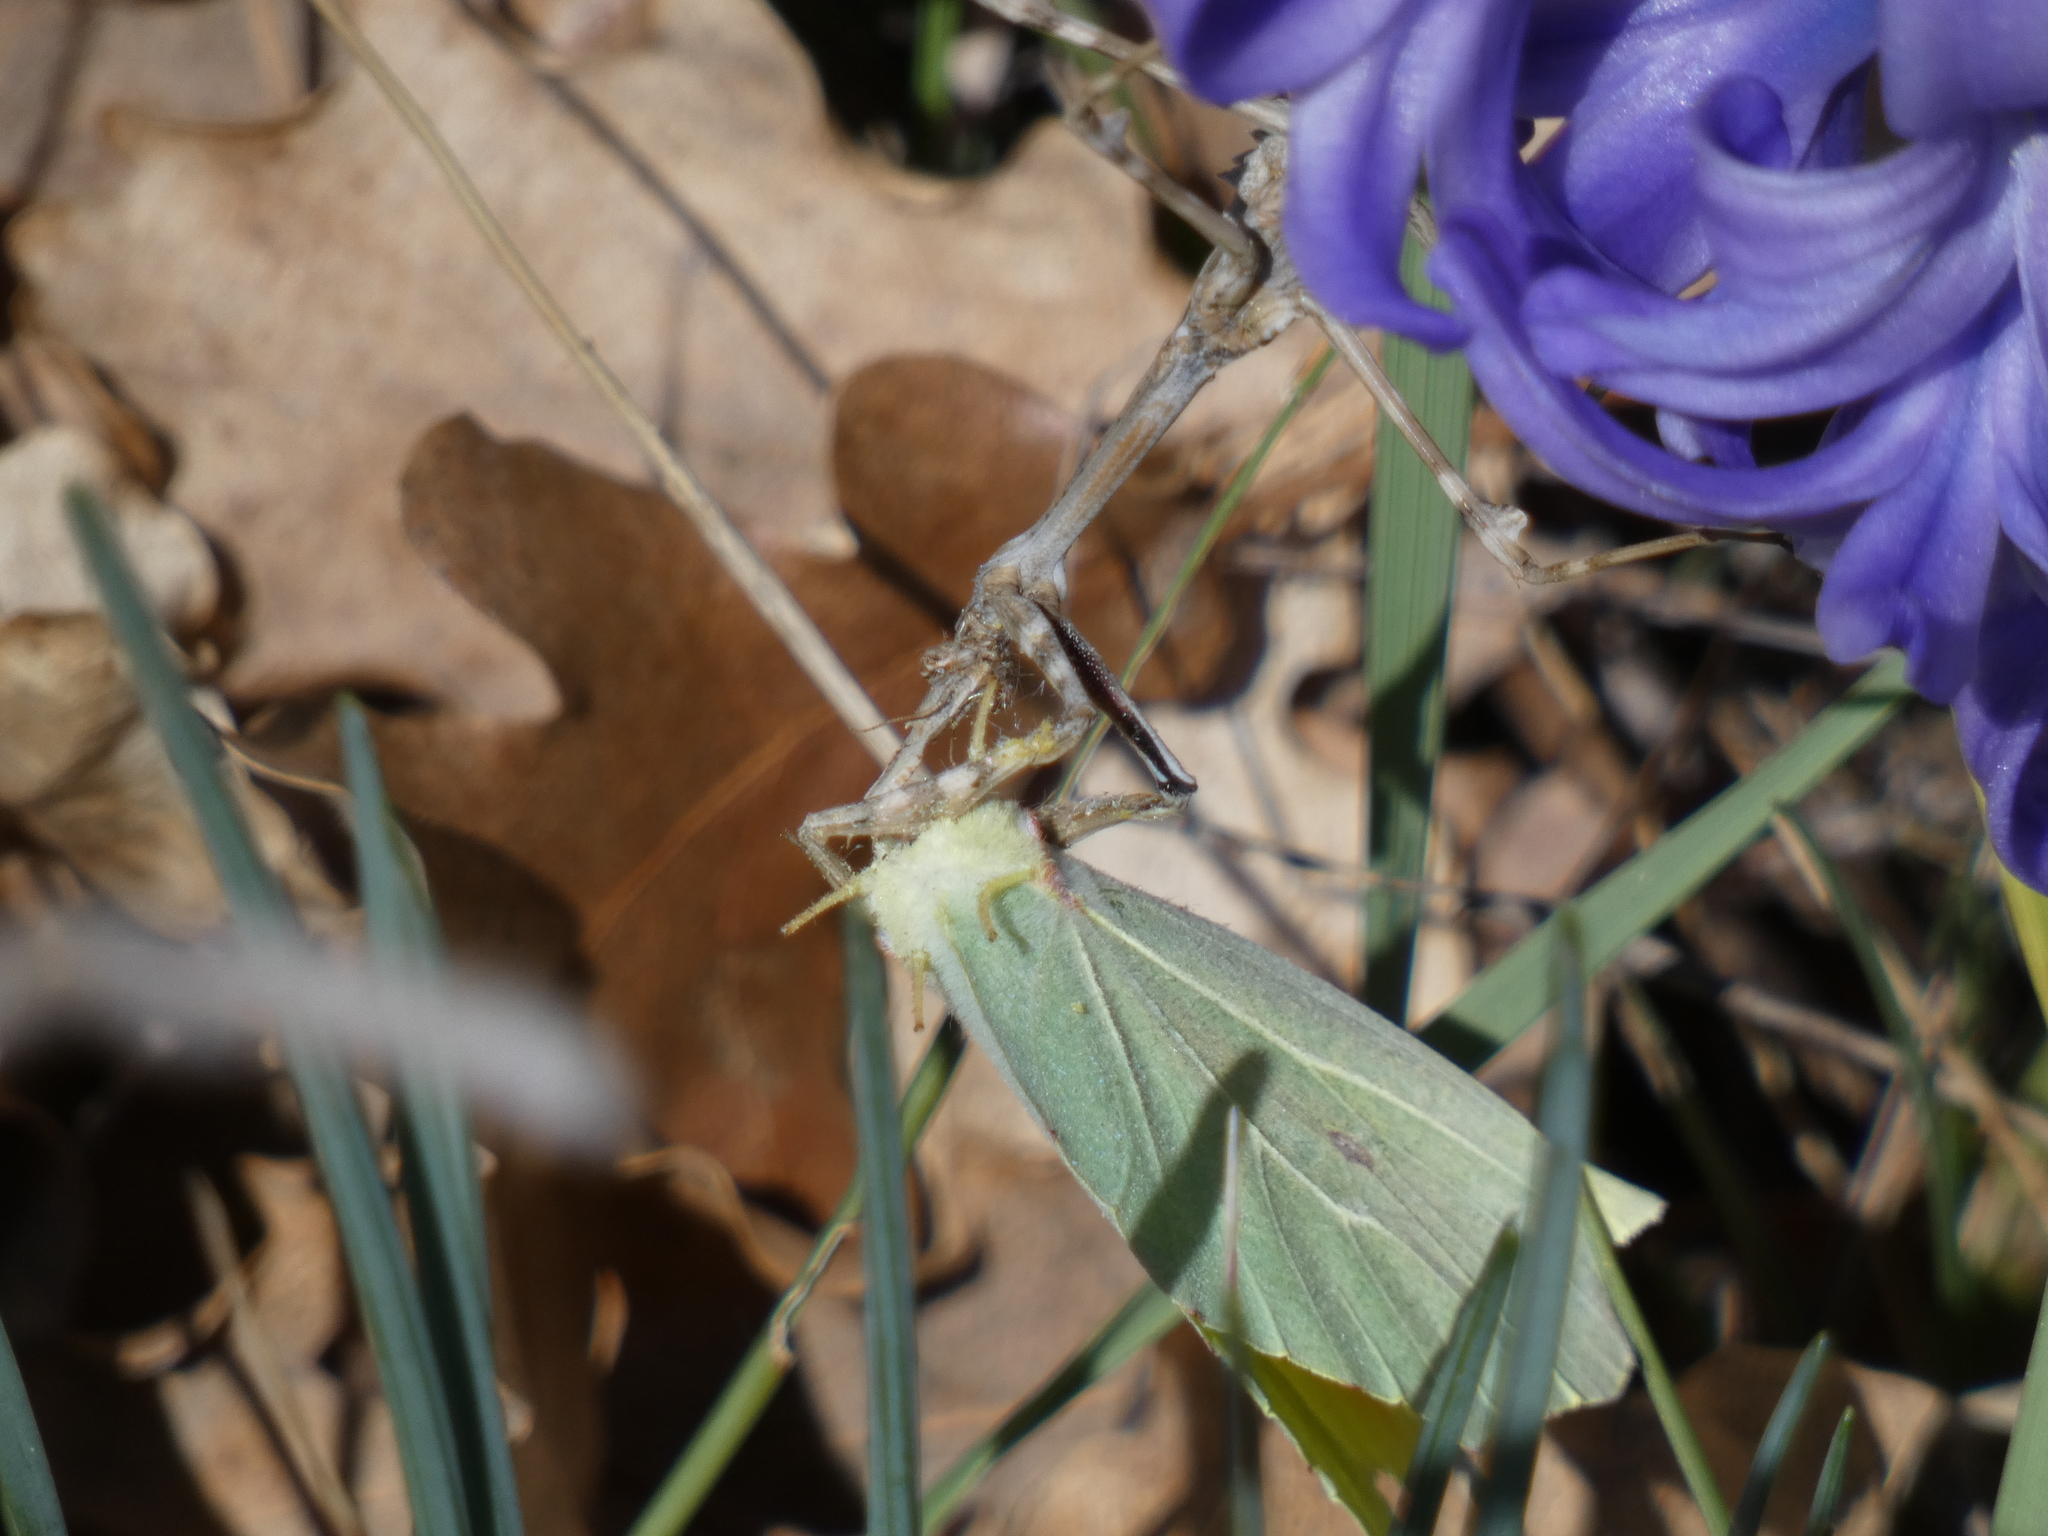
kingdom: Animalia
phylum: Arthropoda
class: Insecta
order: Mantodea
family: Empusidae
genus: Empusa
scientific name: Empusa pennata
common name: Conehead mantis
